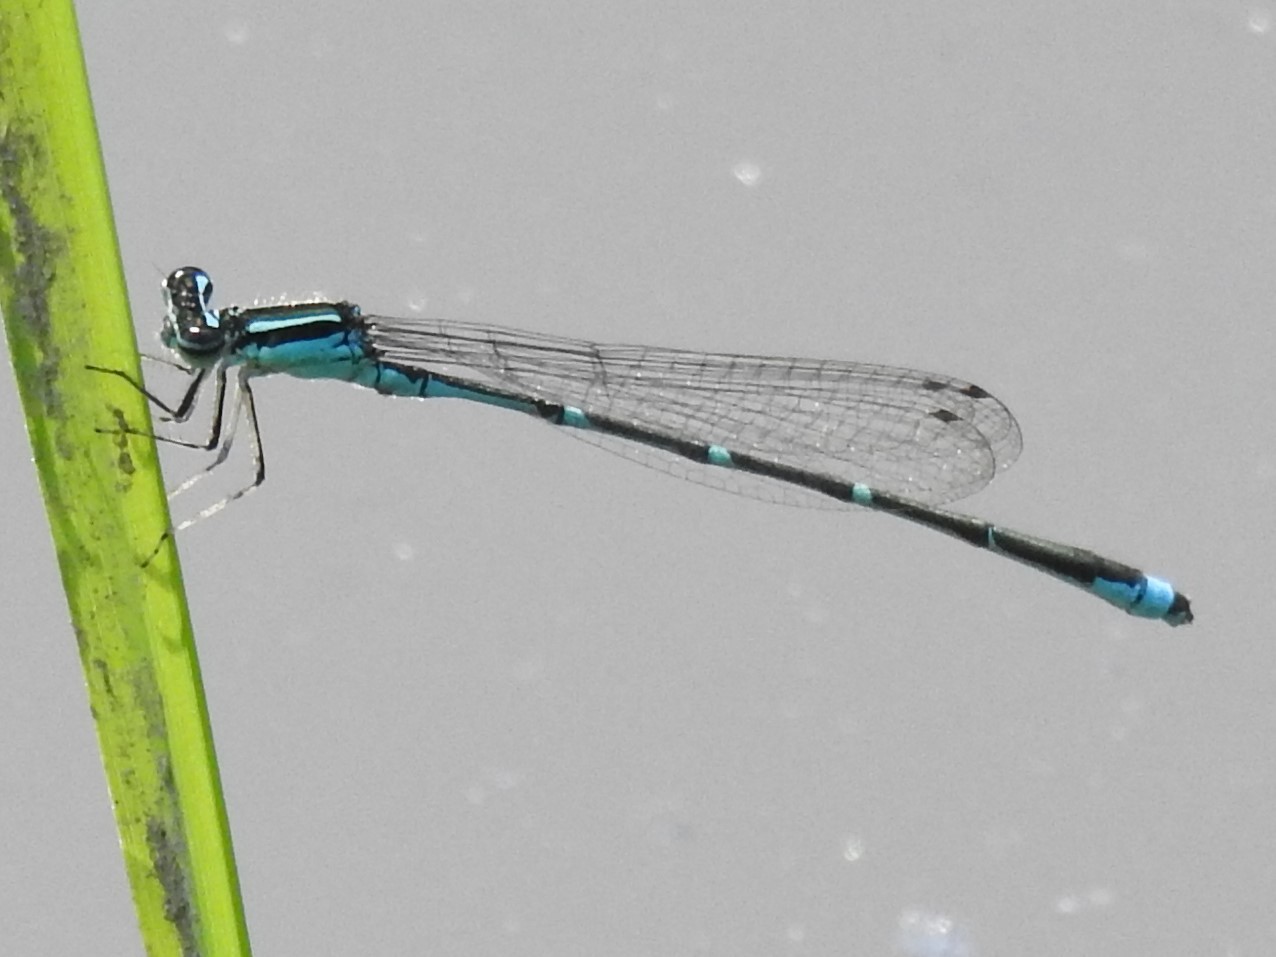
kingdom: Animalia
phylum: Arthropoda
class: Insecta
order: Odonata
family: Coenagrionidae
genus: Enallagma
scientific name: Enallagma exsulans
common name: Stream bluet
